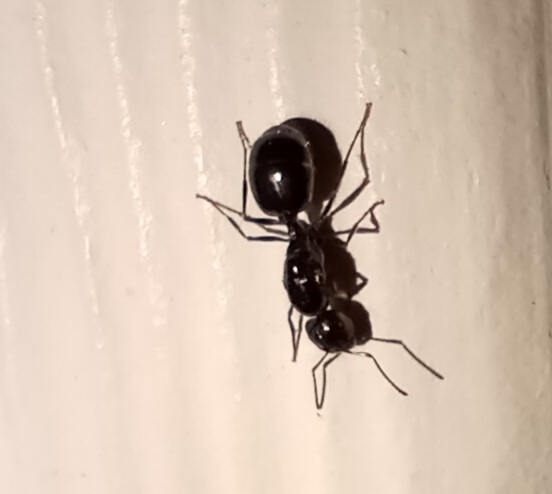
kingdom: Animalia
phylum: Arthropoda
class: Insecta
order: Hymenoptera
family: Formicidae
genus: Messor
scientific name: Messor pergandei
